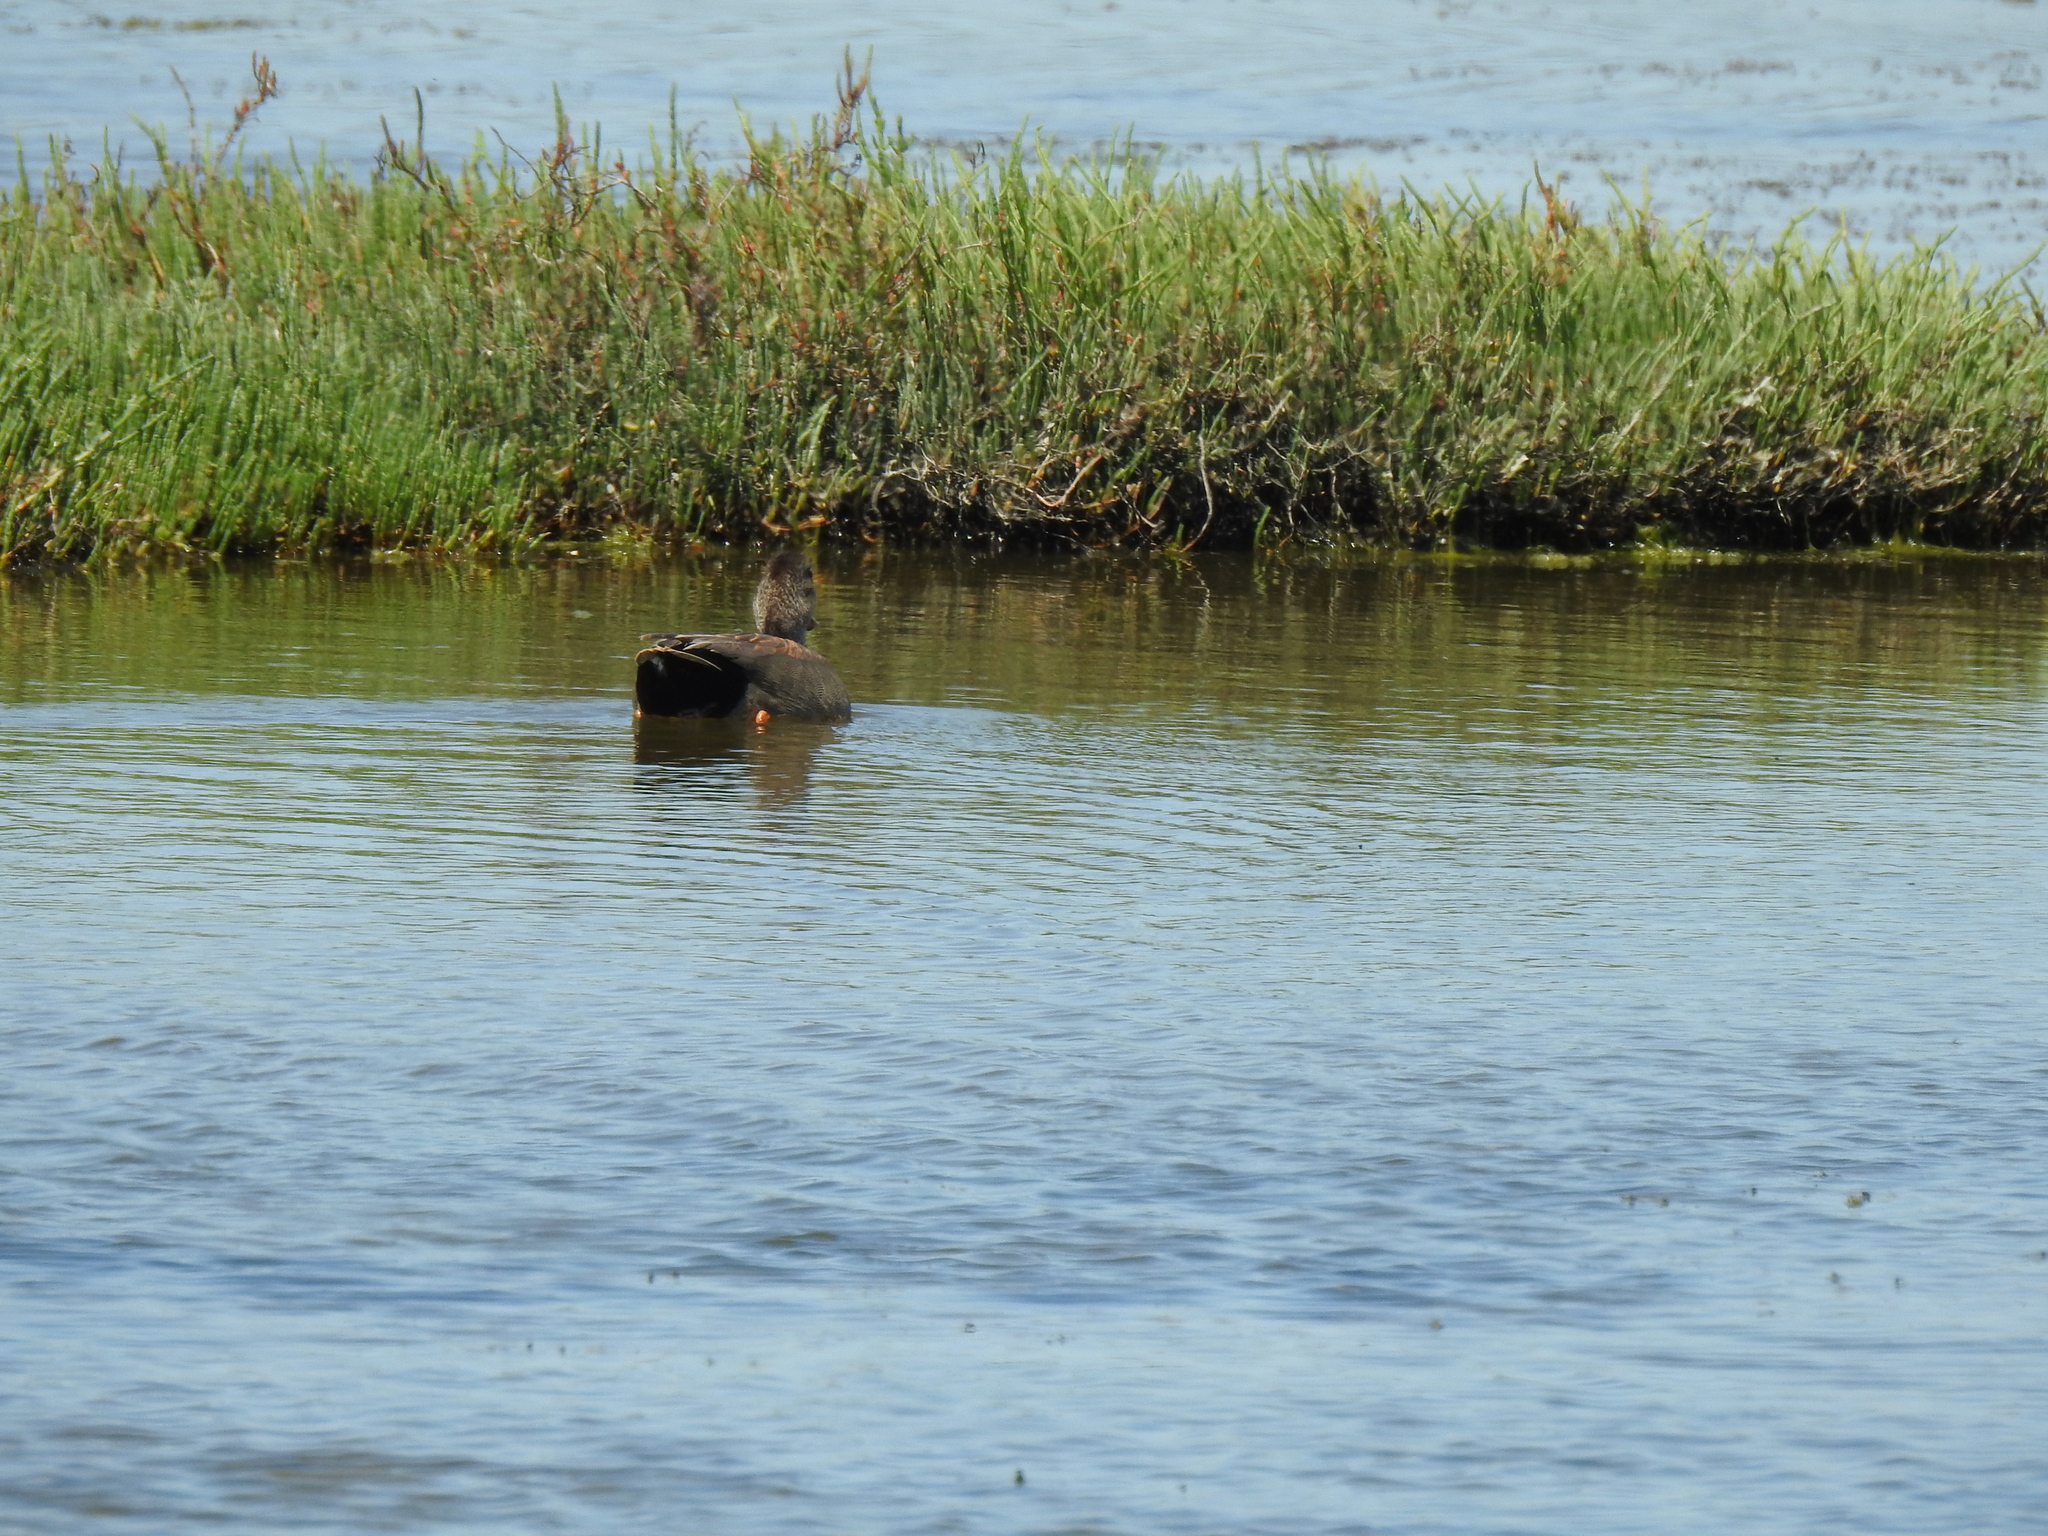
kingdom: Animalia
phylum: Chordata
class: Aves
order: Anseriformes
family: Anatidae
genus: Mareca
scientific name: Mareca strepera
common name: Gadwall
